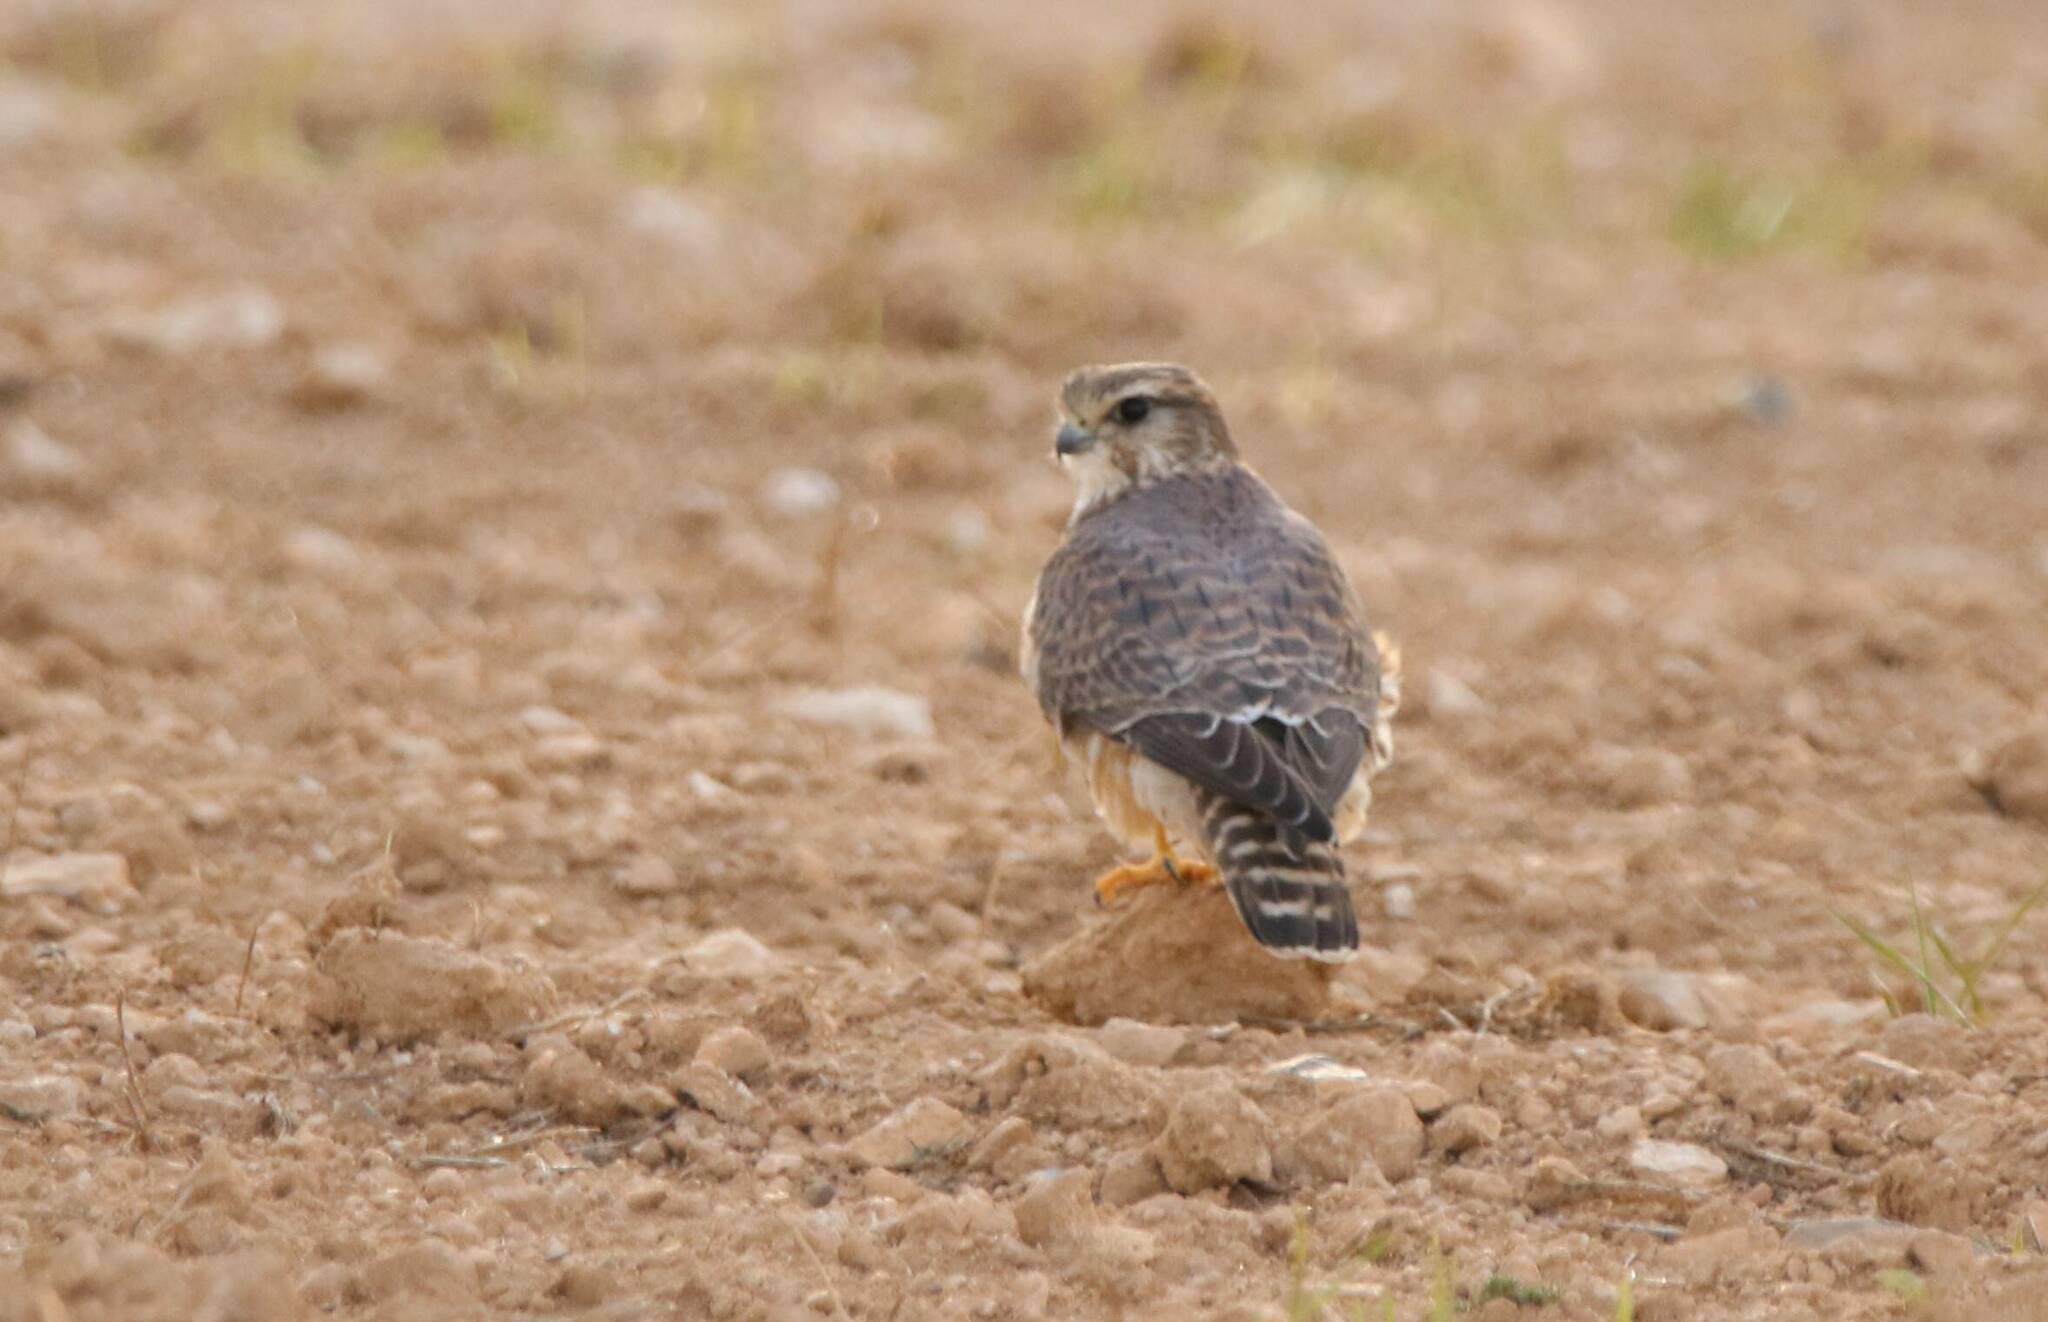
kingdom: Animalia
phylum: Chordata
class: Aves
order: Falconiformes
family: Falconidae
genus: Falco
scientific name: Falco columbarius
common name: Merlin
